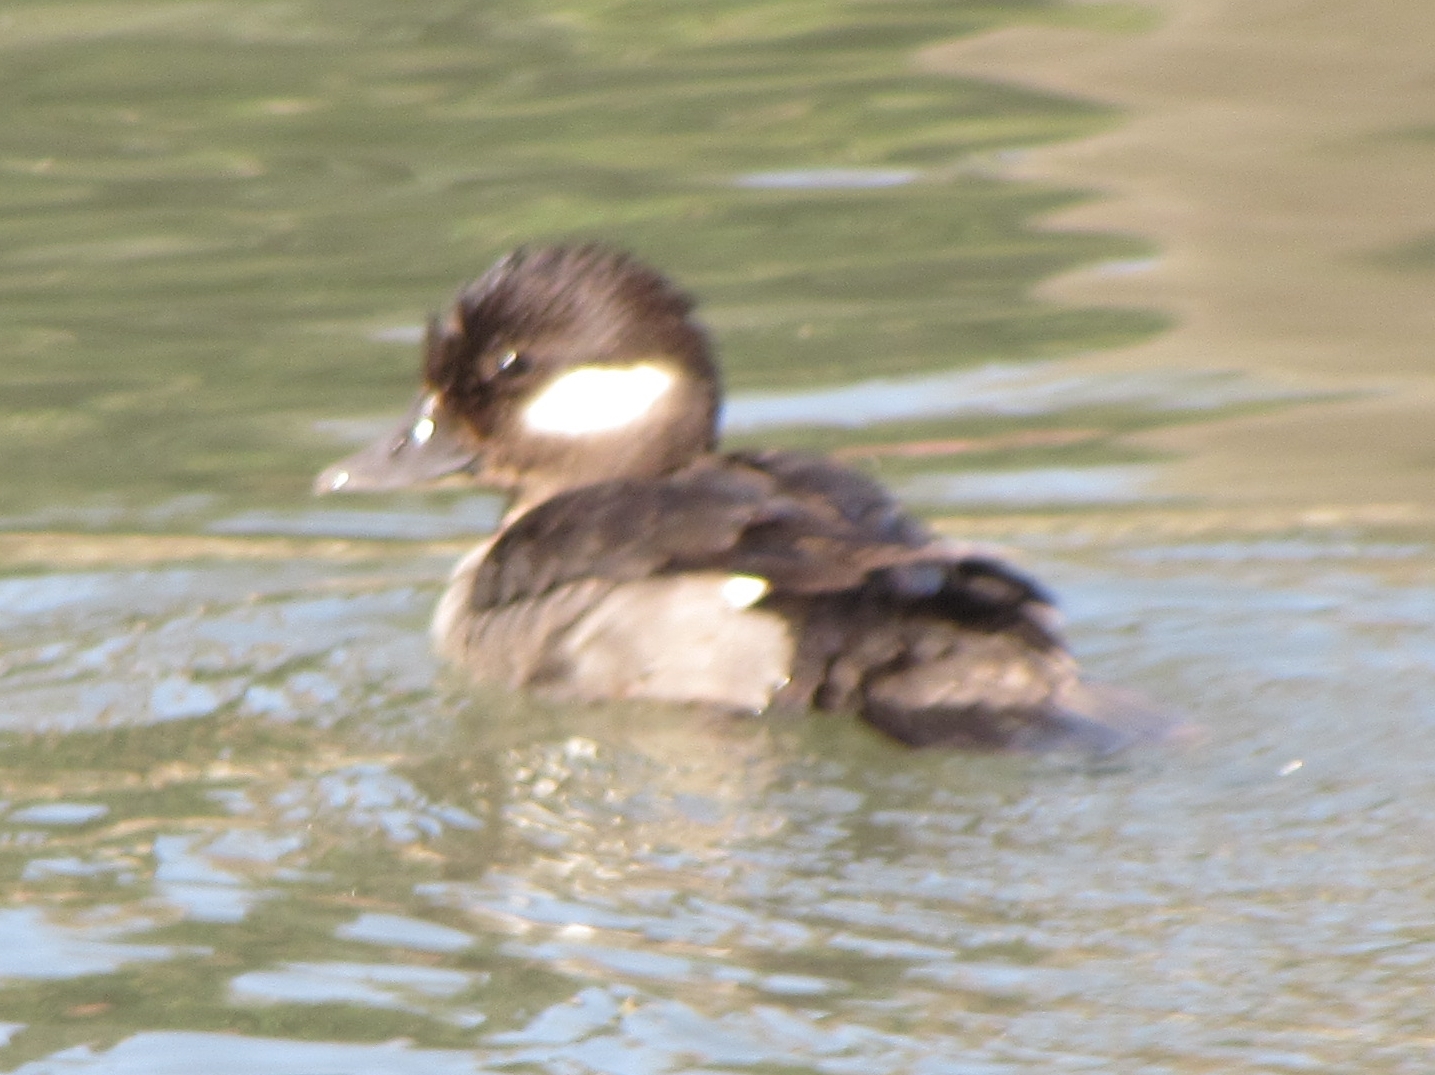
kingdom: Animalia
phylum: Chordata
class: Aves
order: Anseriformes
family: Anatidae
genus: Bucephala
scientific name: Bucephala albeola
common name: Bufflehead
